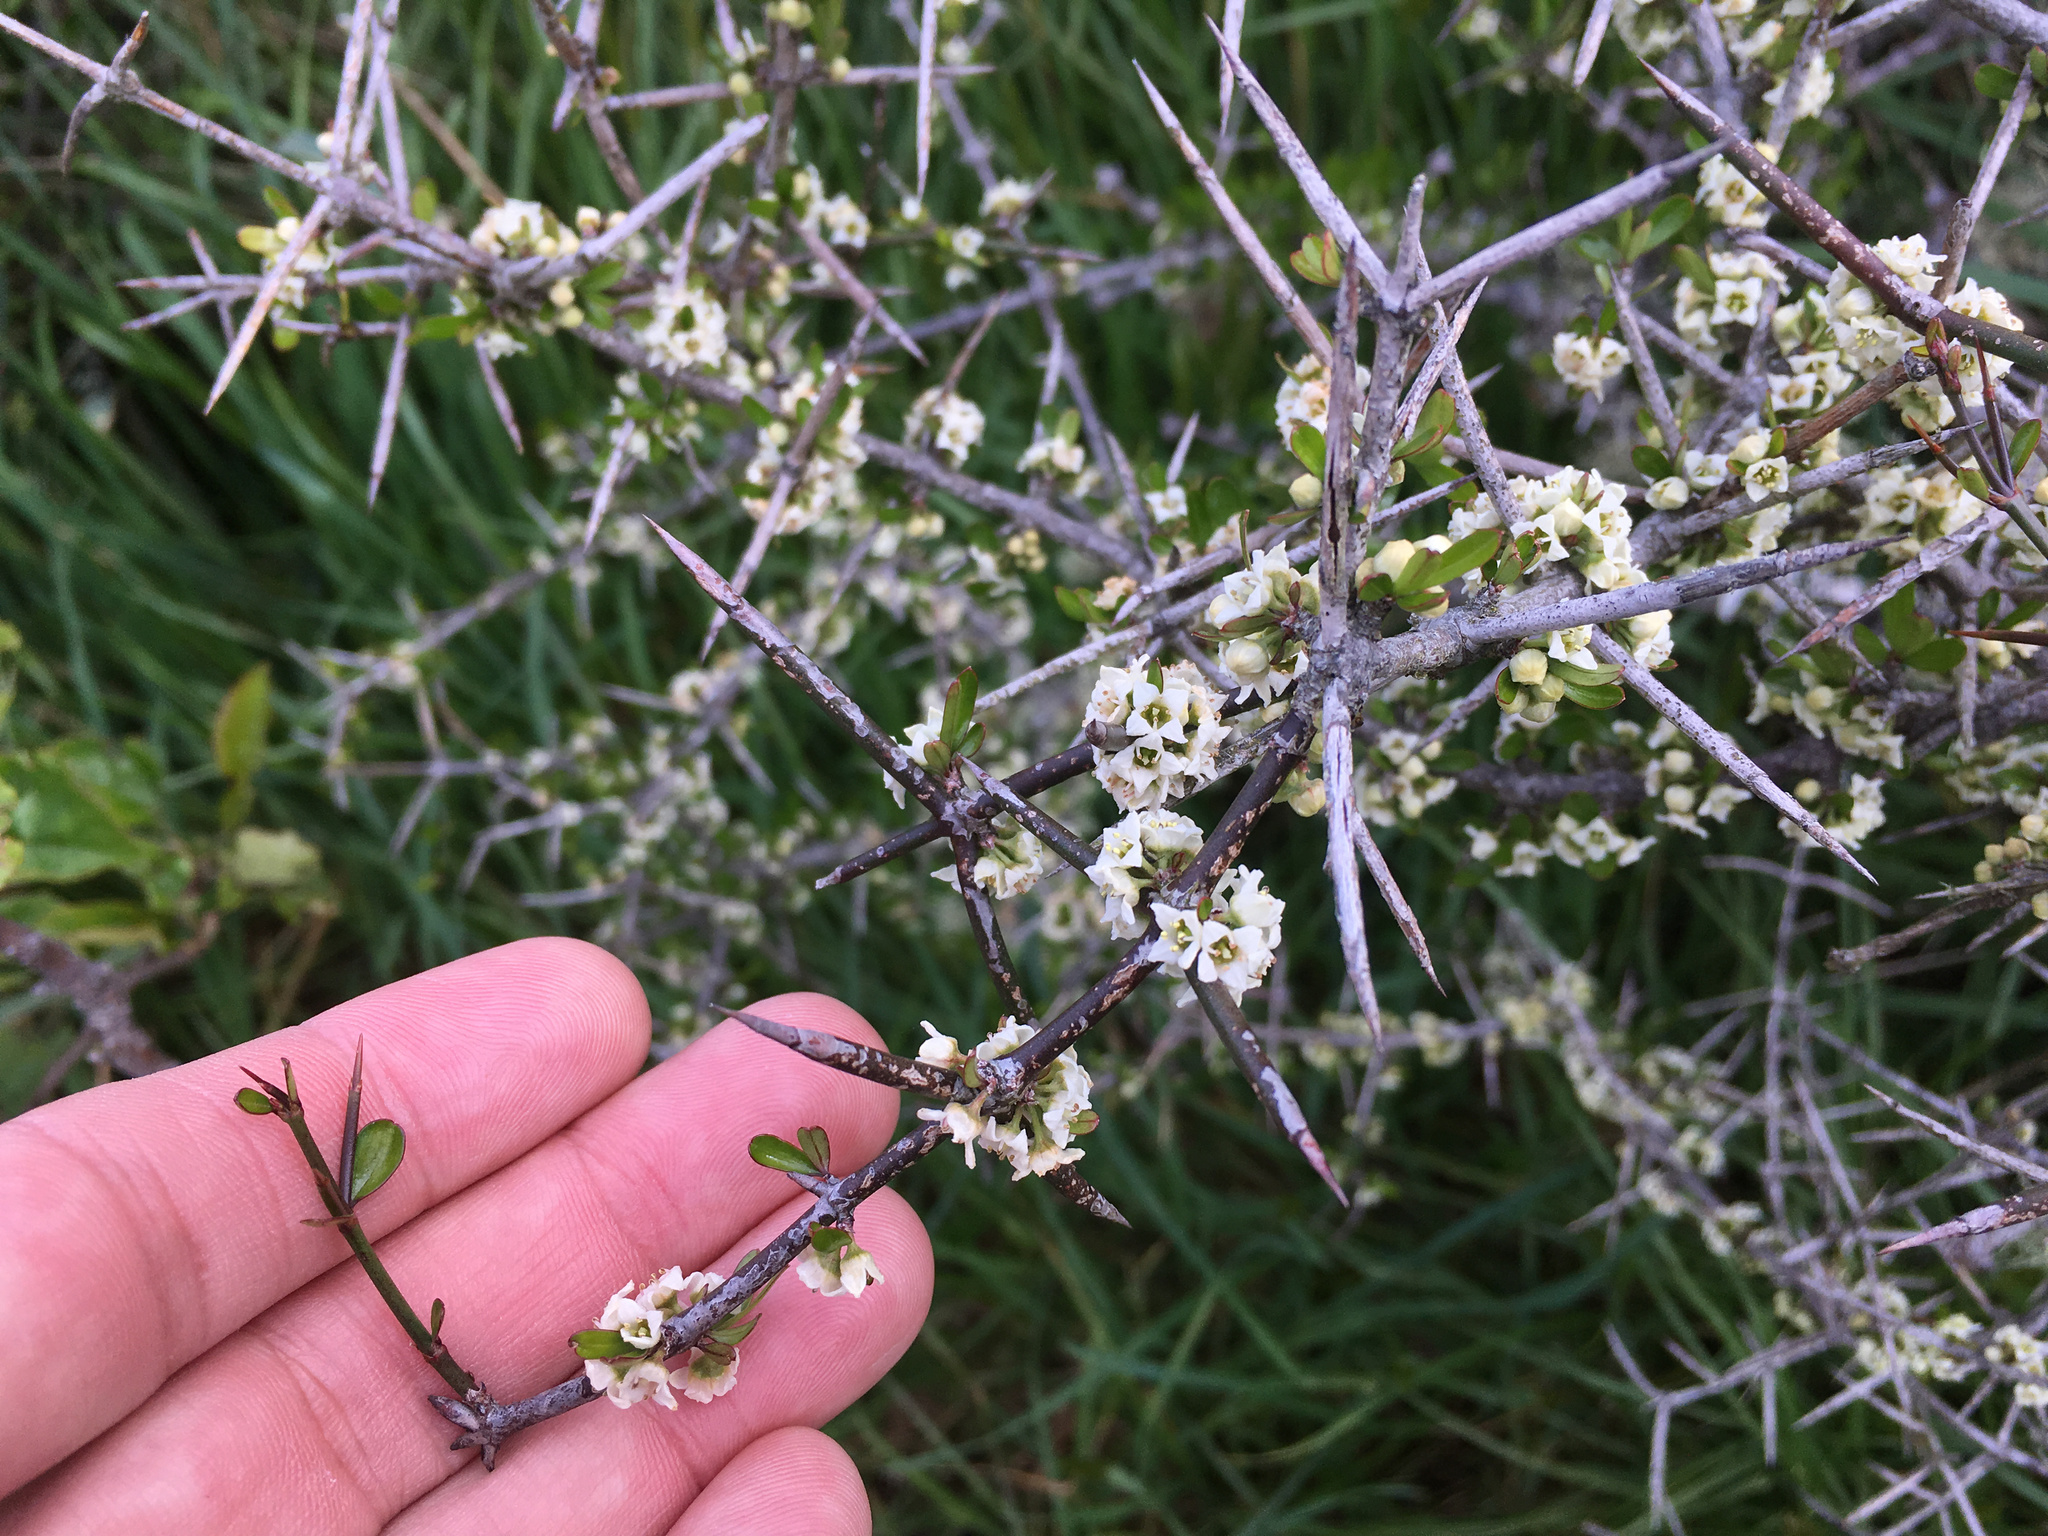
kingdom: Plantae
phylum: Tracheophyta
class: Magnoliopsida
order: Rosales
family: Rhamnaceae
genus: Discaria
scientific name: Discaria toumatou
